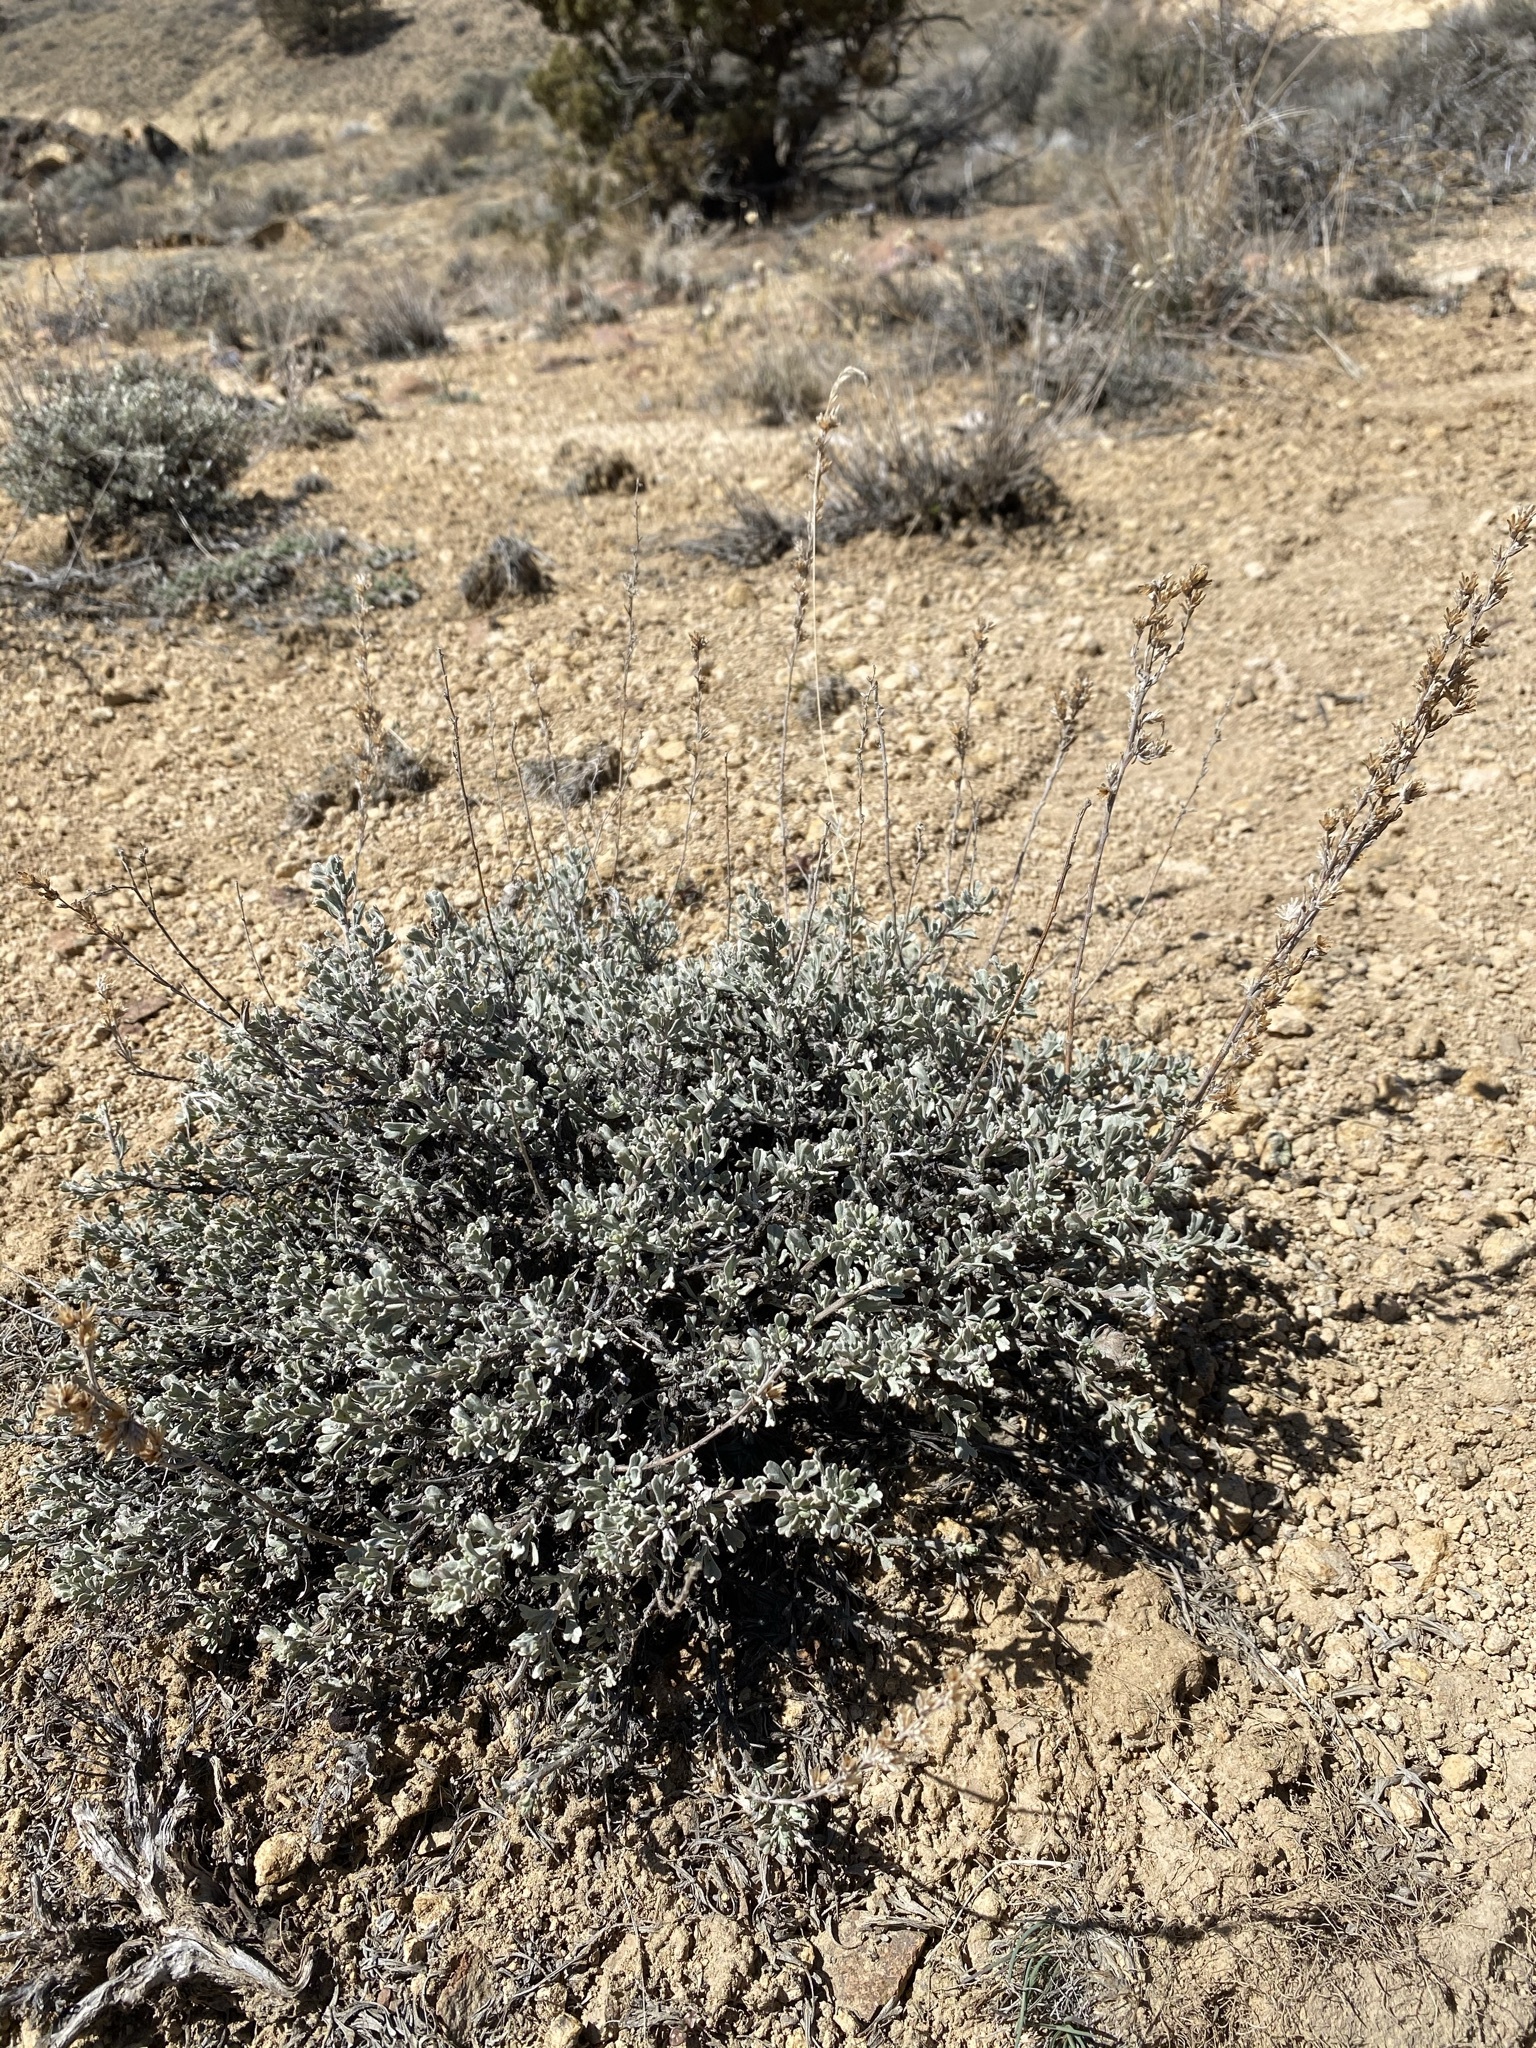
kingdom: Plantae
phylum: Tracheophyta
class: Magnoliopsida
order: Asterales
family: Asteraceae
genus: Artemisia
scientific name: Artemisia arbuscula
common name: Sagebrush
